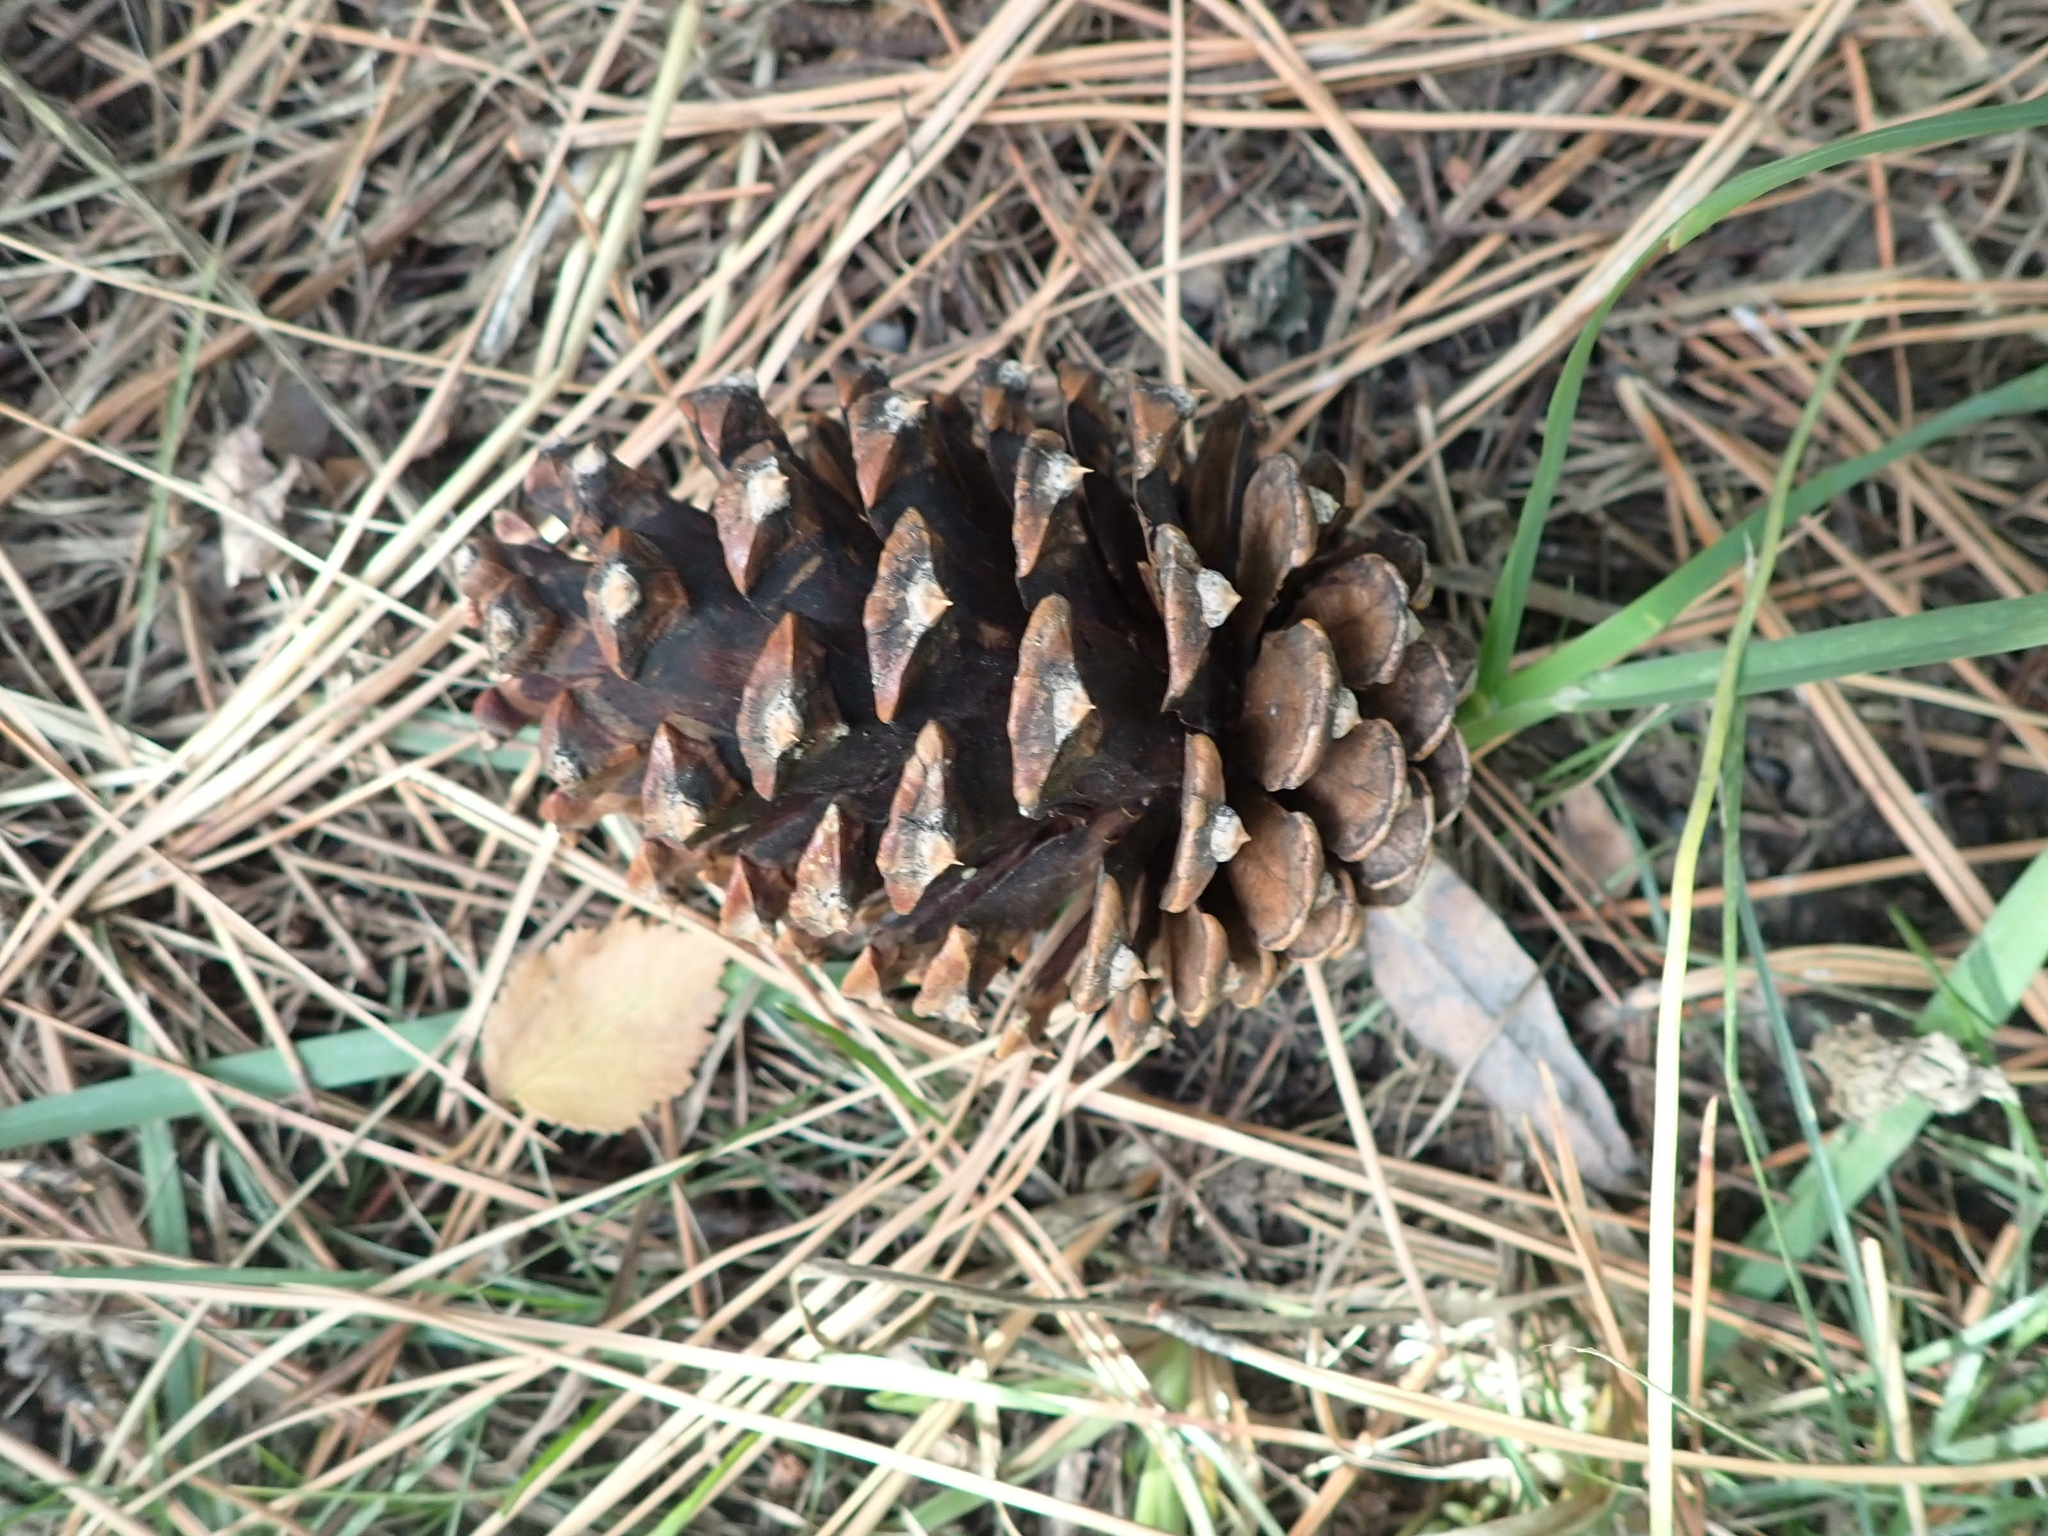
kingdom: Plantae
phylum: Tracheophyta
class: Pinopsida
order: Pinales
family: Pinaceae
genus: Pinus
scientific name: Pinus ponderosa
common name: Western yellow-pine
